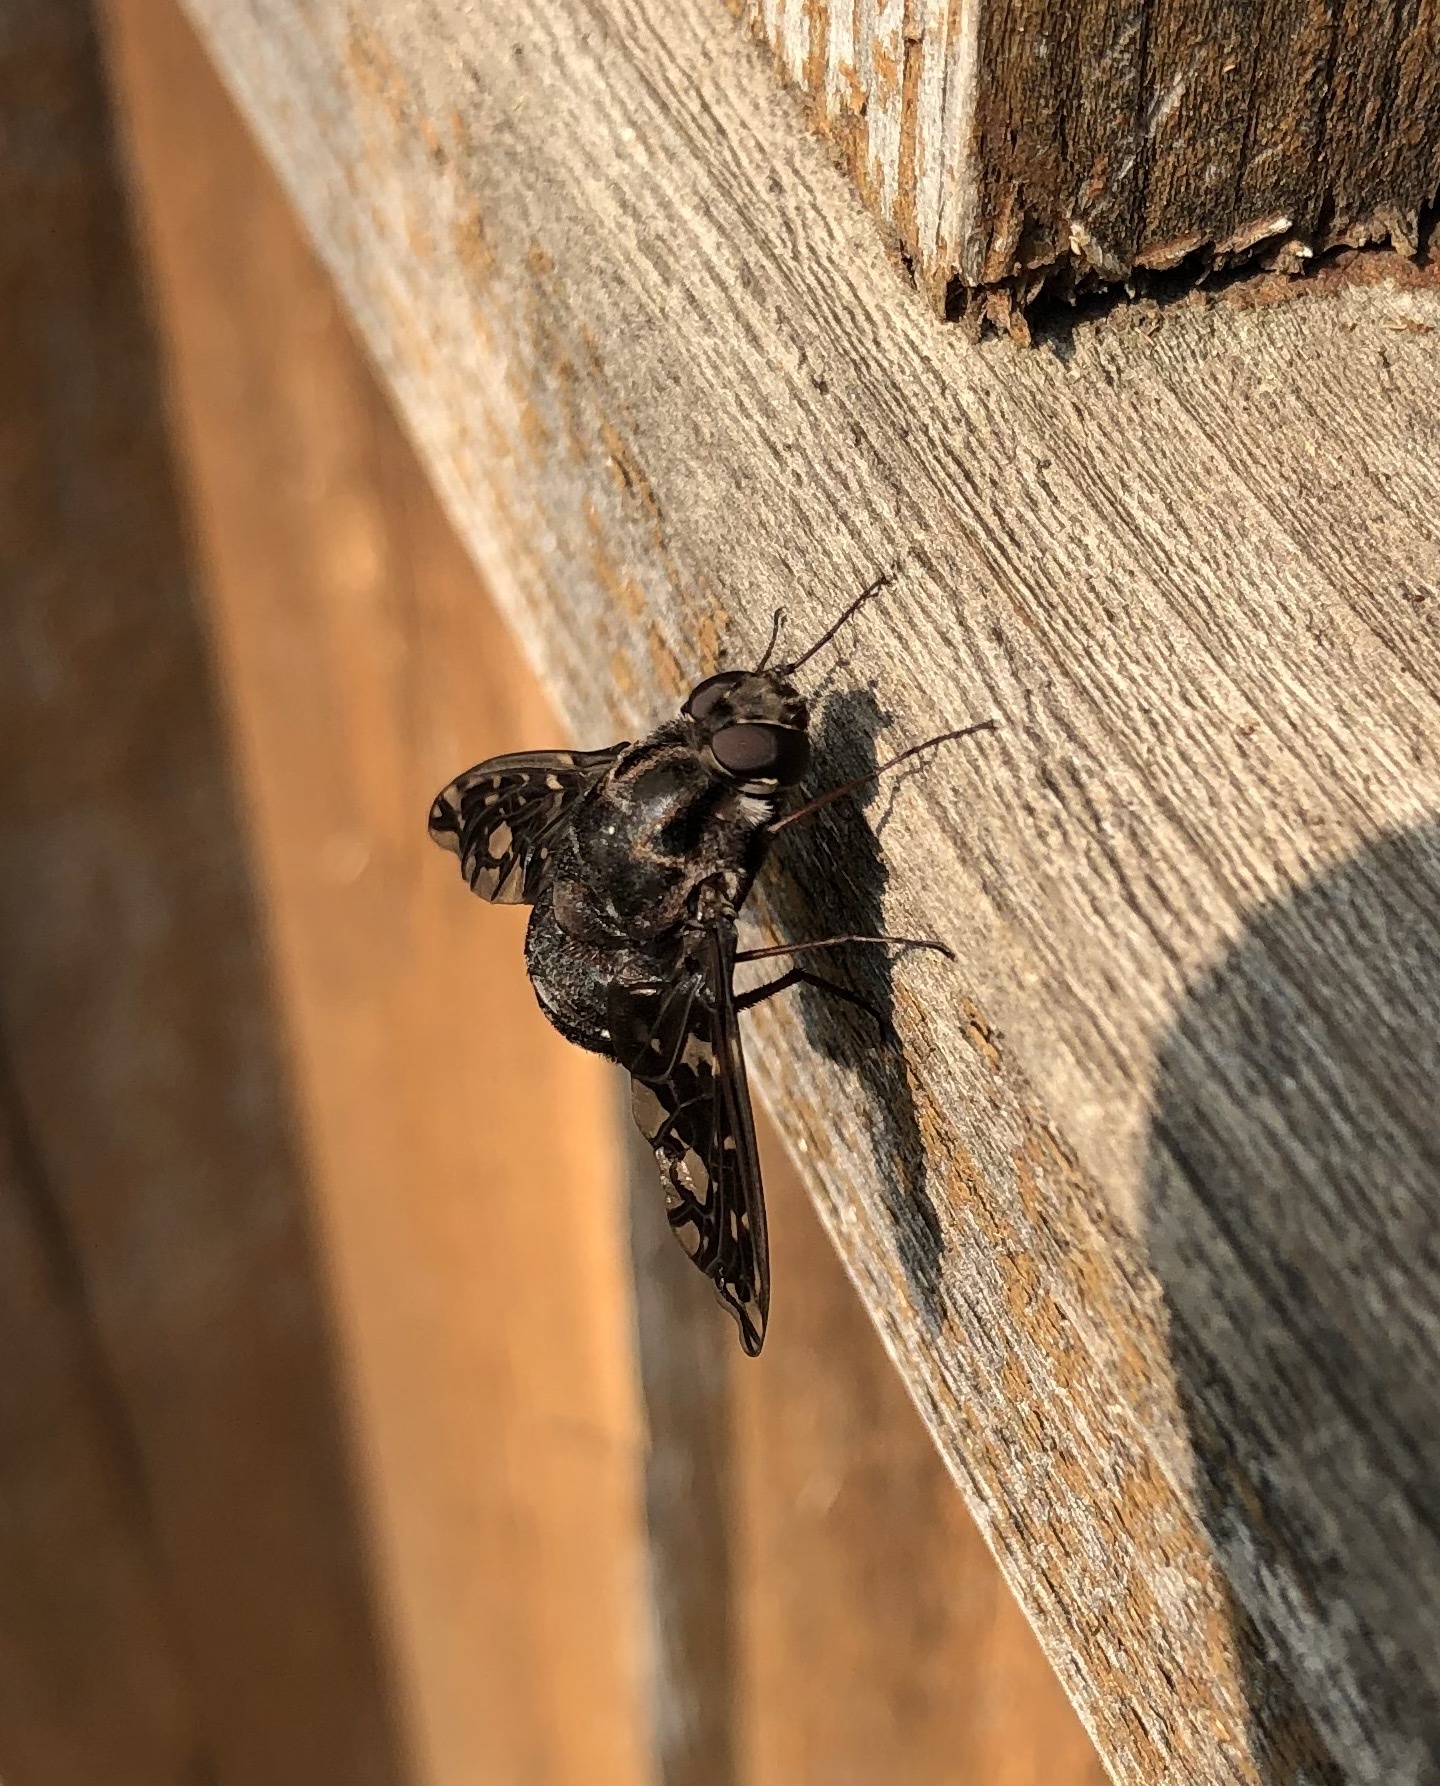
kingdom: Animalia
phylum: Arthropoda
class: Insecta
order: Diptera
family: Bombyliidae
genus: Xenox
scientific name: Xenox tigrinus
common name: Tiger bee fly
